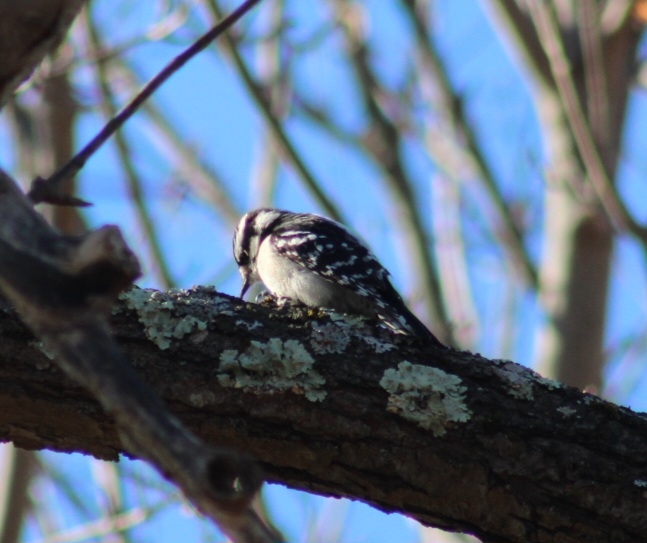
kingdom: Animalia
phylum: Chordata
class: Aves
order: Piciformes
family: Picidae
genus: Dryobates
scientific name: Dryobates pubescens
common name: Downy woodpecker
